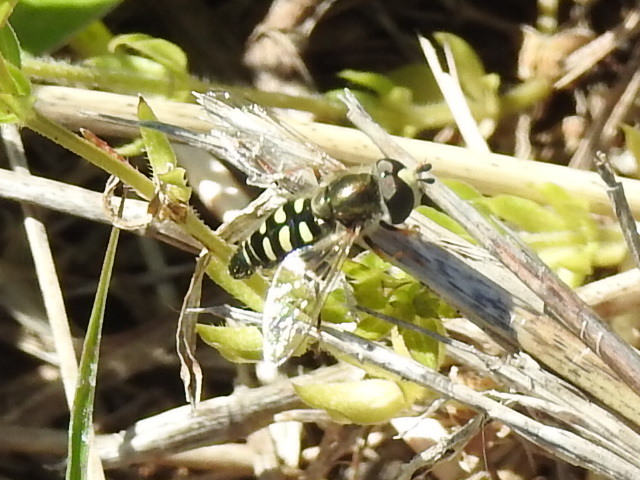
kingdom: Animalia
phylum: Arthropoda
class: Insecta
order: Diptera
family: Syrphidae
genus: Eupeodes
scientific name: Eupeodes volucris
